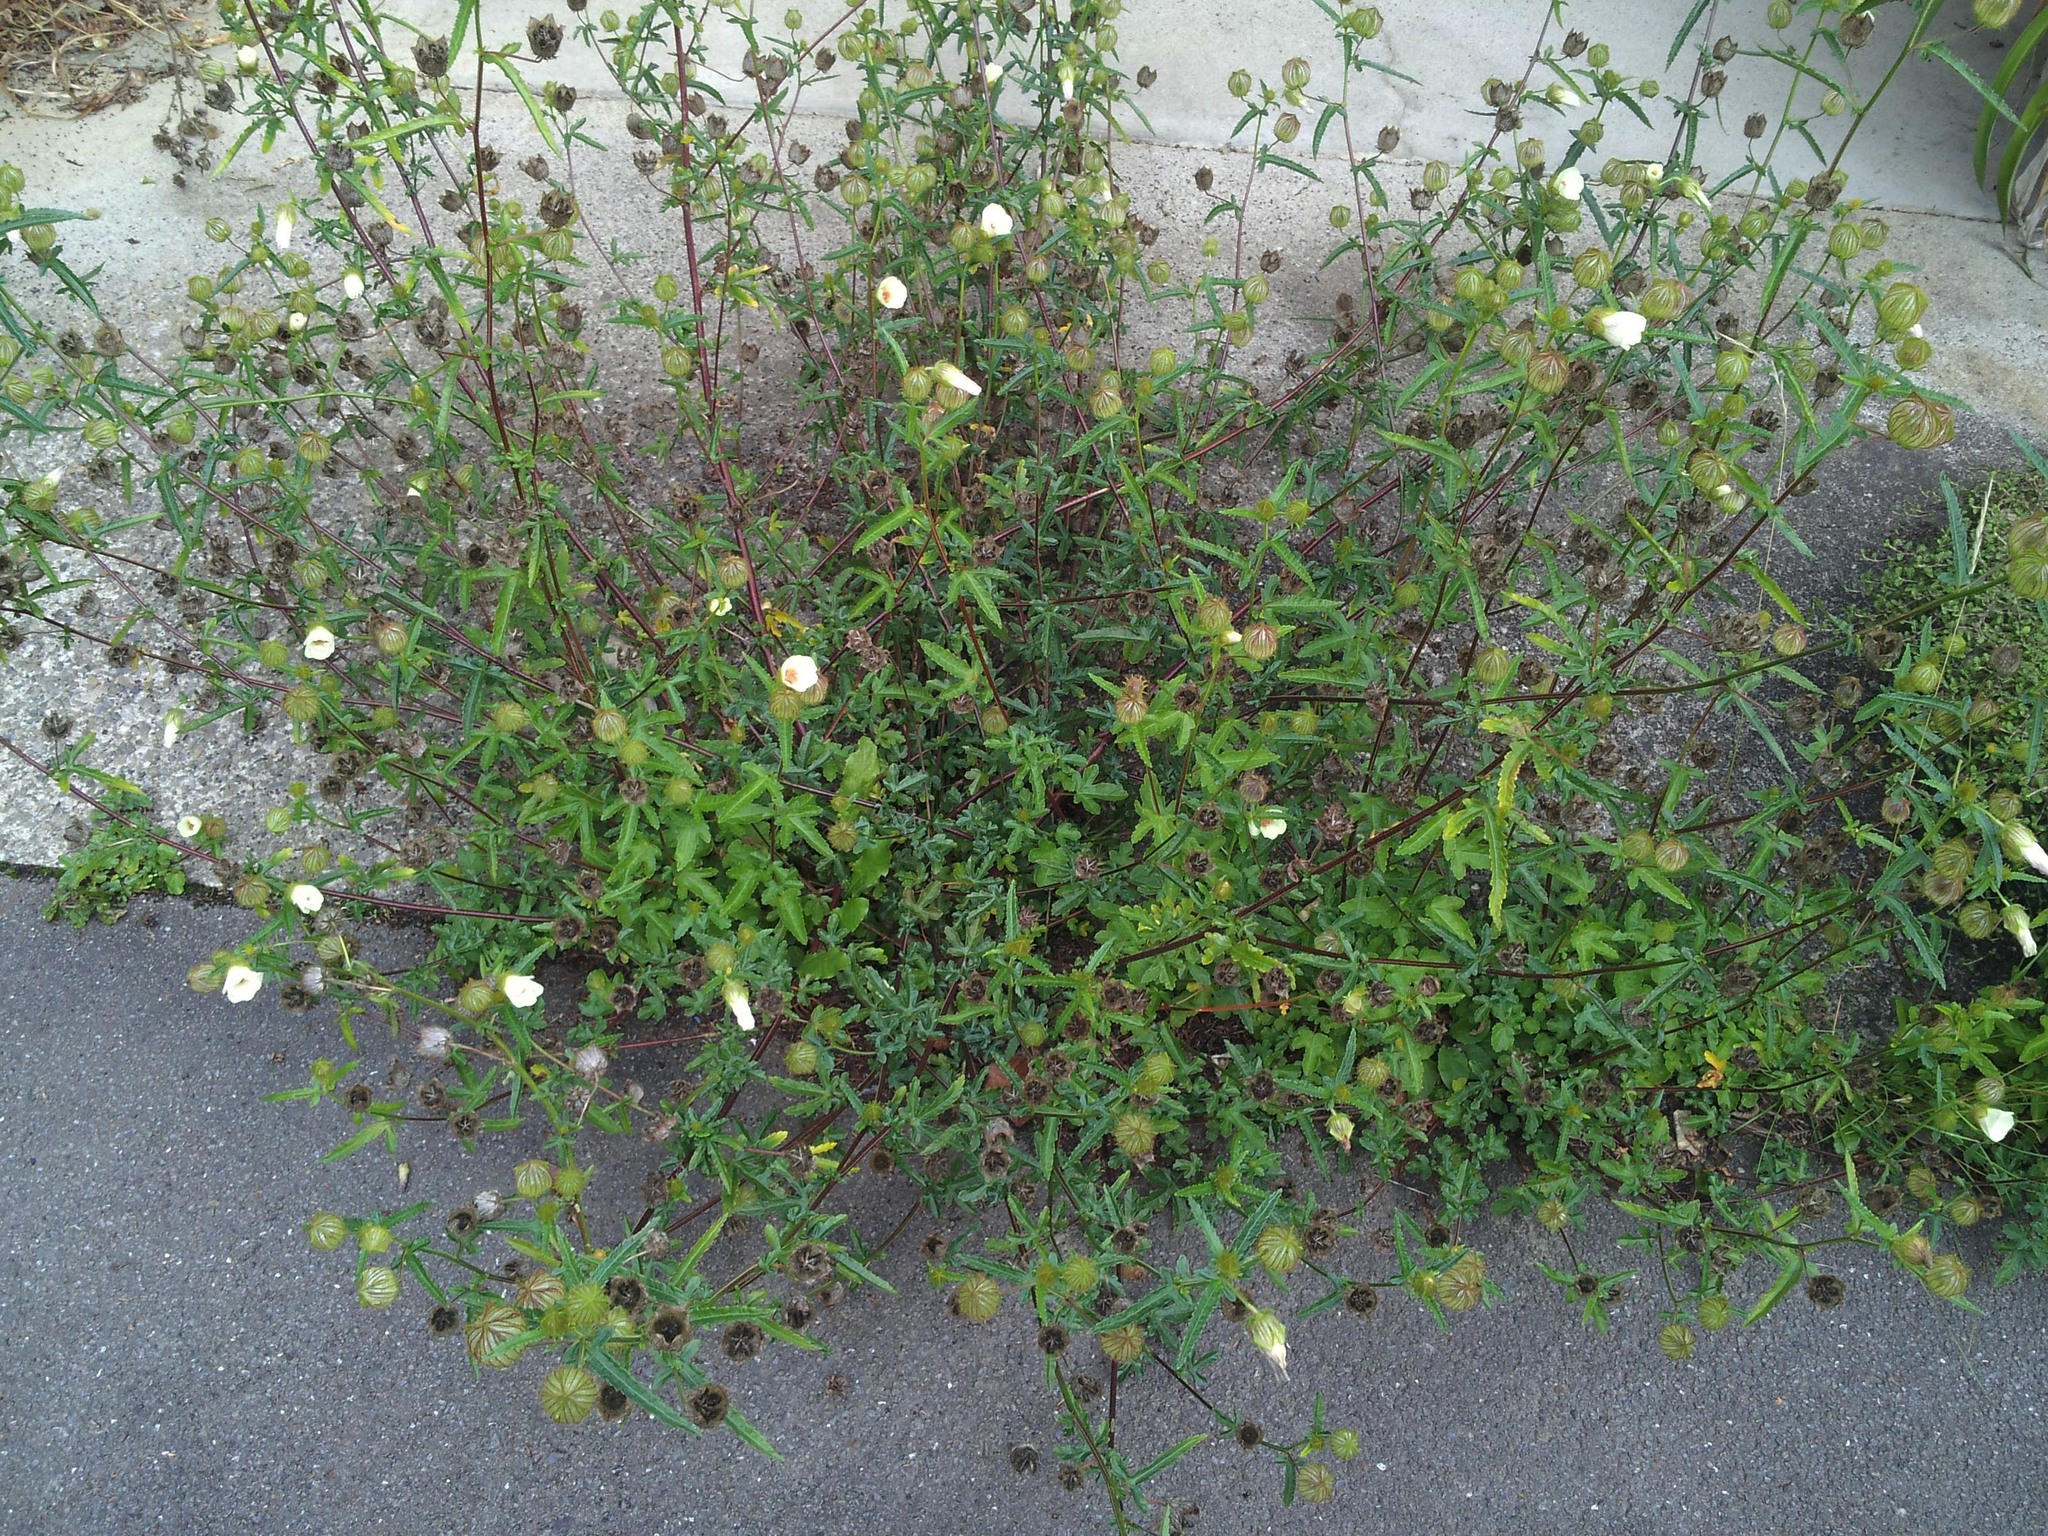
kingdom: Plantae
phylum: Tracheophyta
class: Magnoliopsida
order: Malvales
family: Malvaceae
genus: Hibiscus
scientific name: Hibiscus richardsonii
